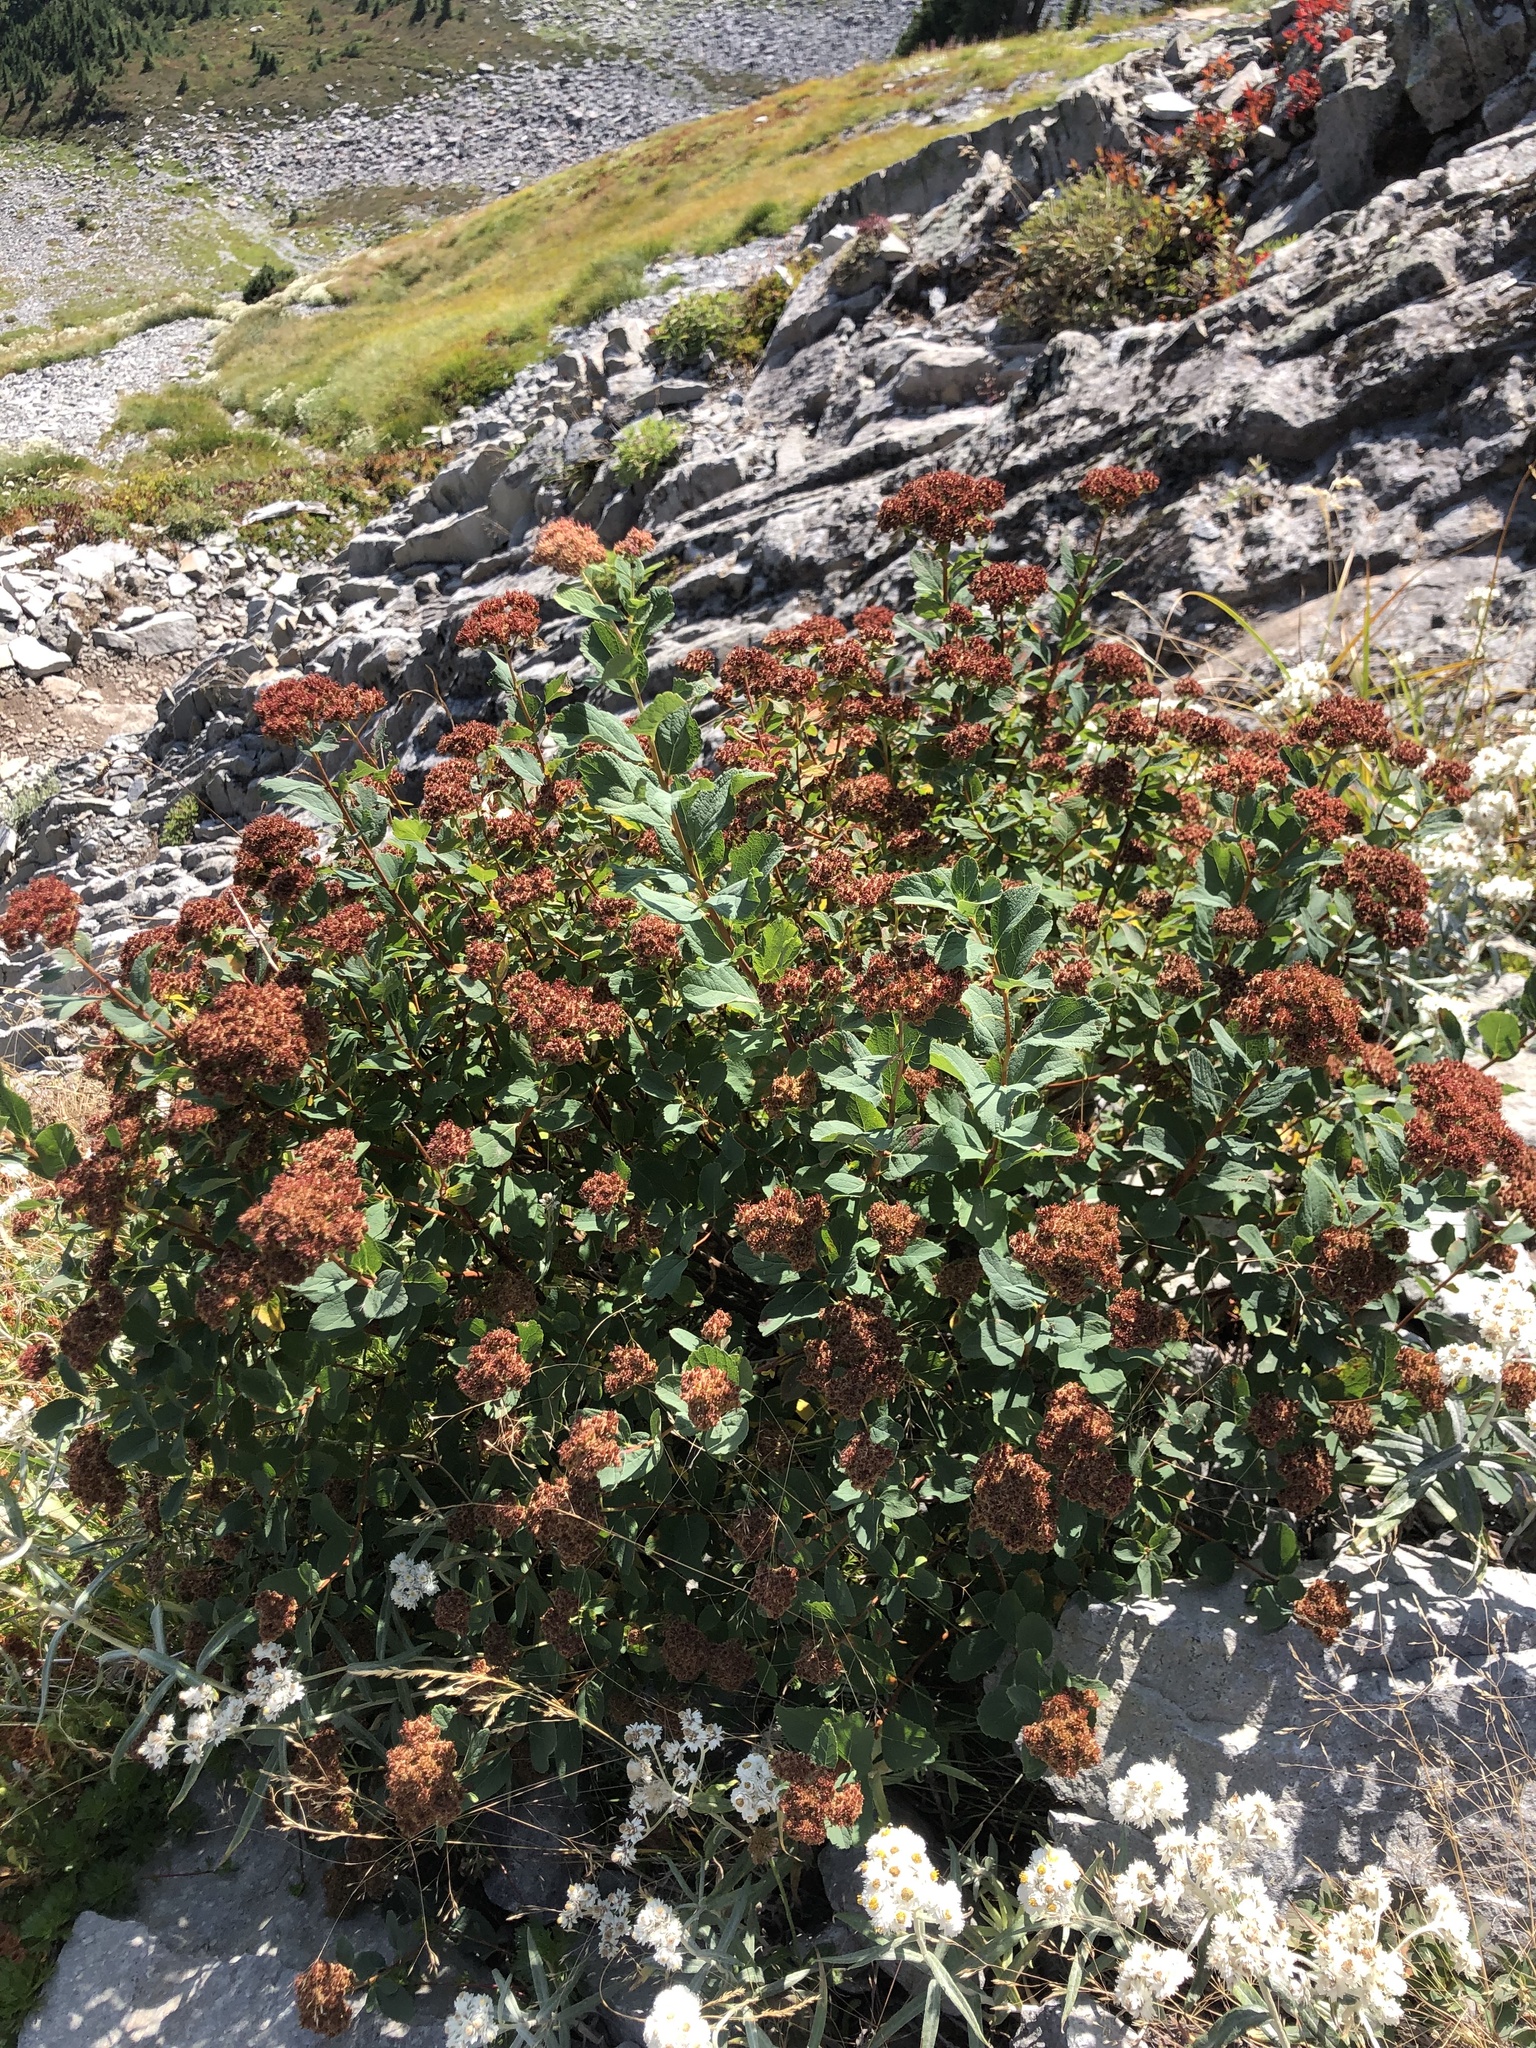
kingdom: Plantae
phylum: Tracheophyta
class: Magnoliopsida
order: Rosales
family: Rosaceae
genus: Spiraea
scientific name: Spiraea splendens
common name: Subalpine meadowsweet
